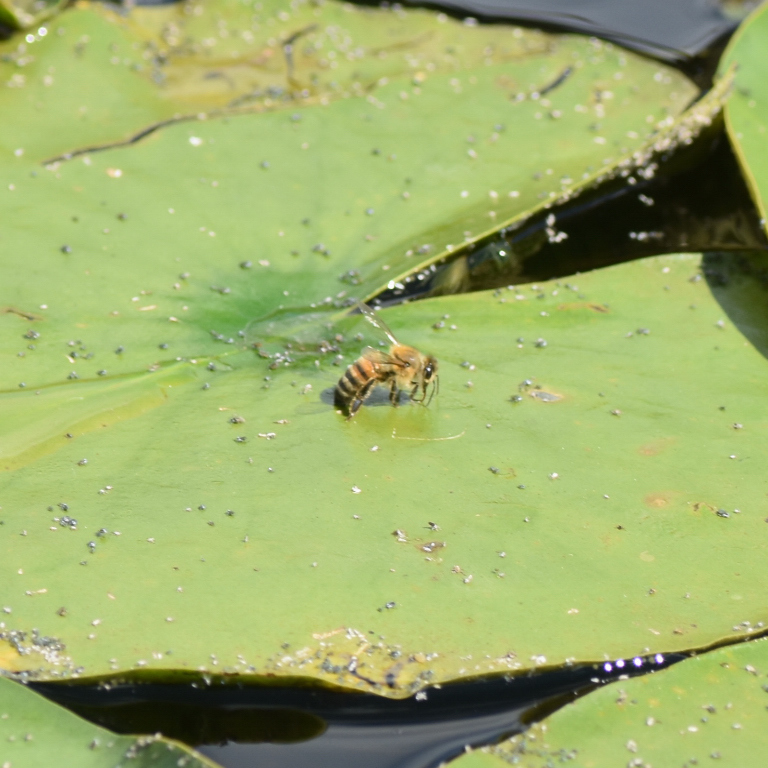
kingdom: Animalia
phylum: Arthropoda
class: Insecta
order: Hymenoptera
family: Apidae
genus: Apis
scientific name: Apis mellifera
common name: Honey bee
